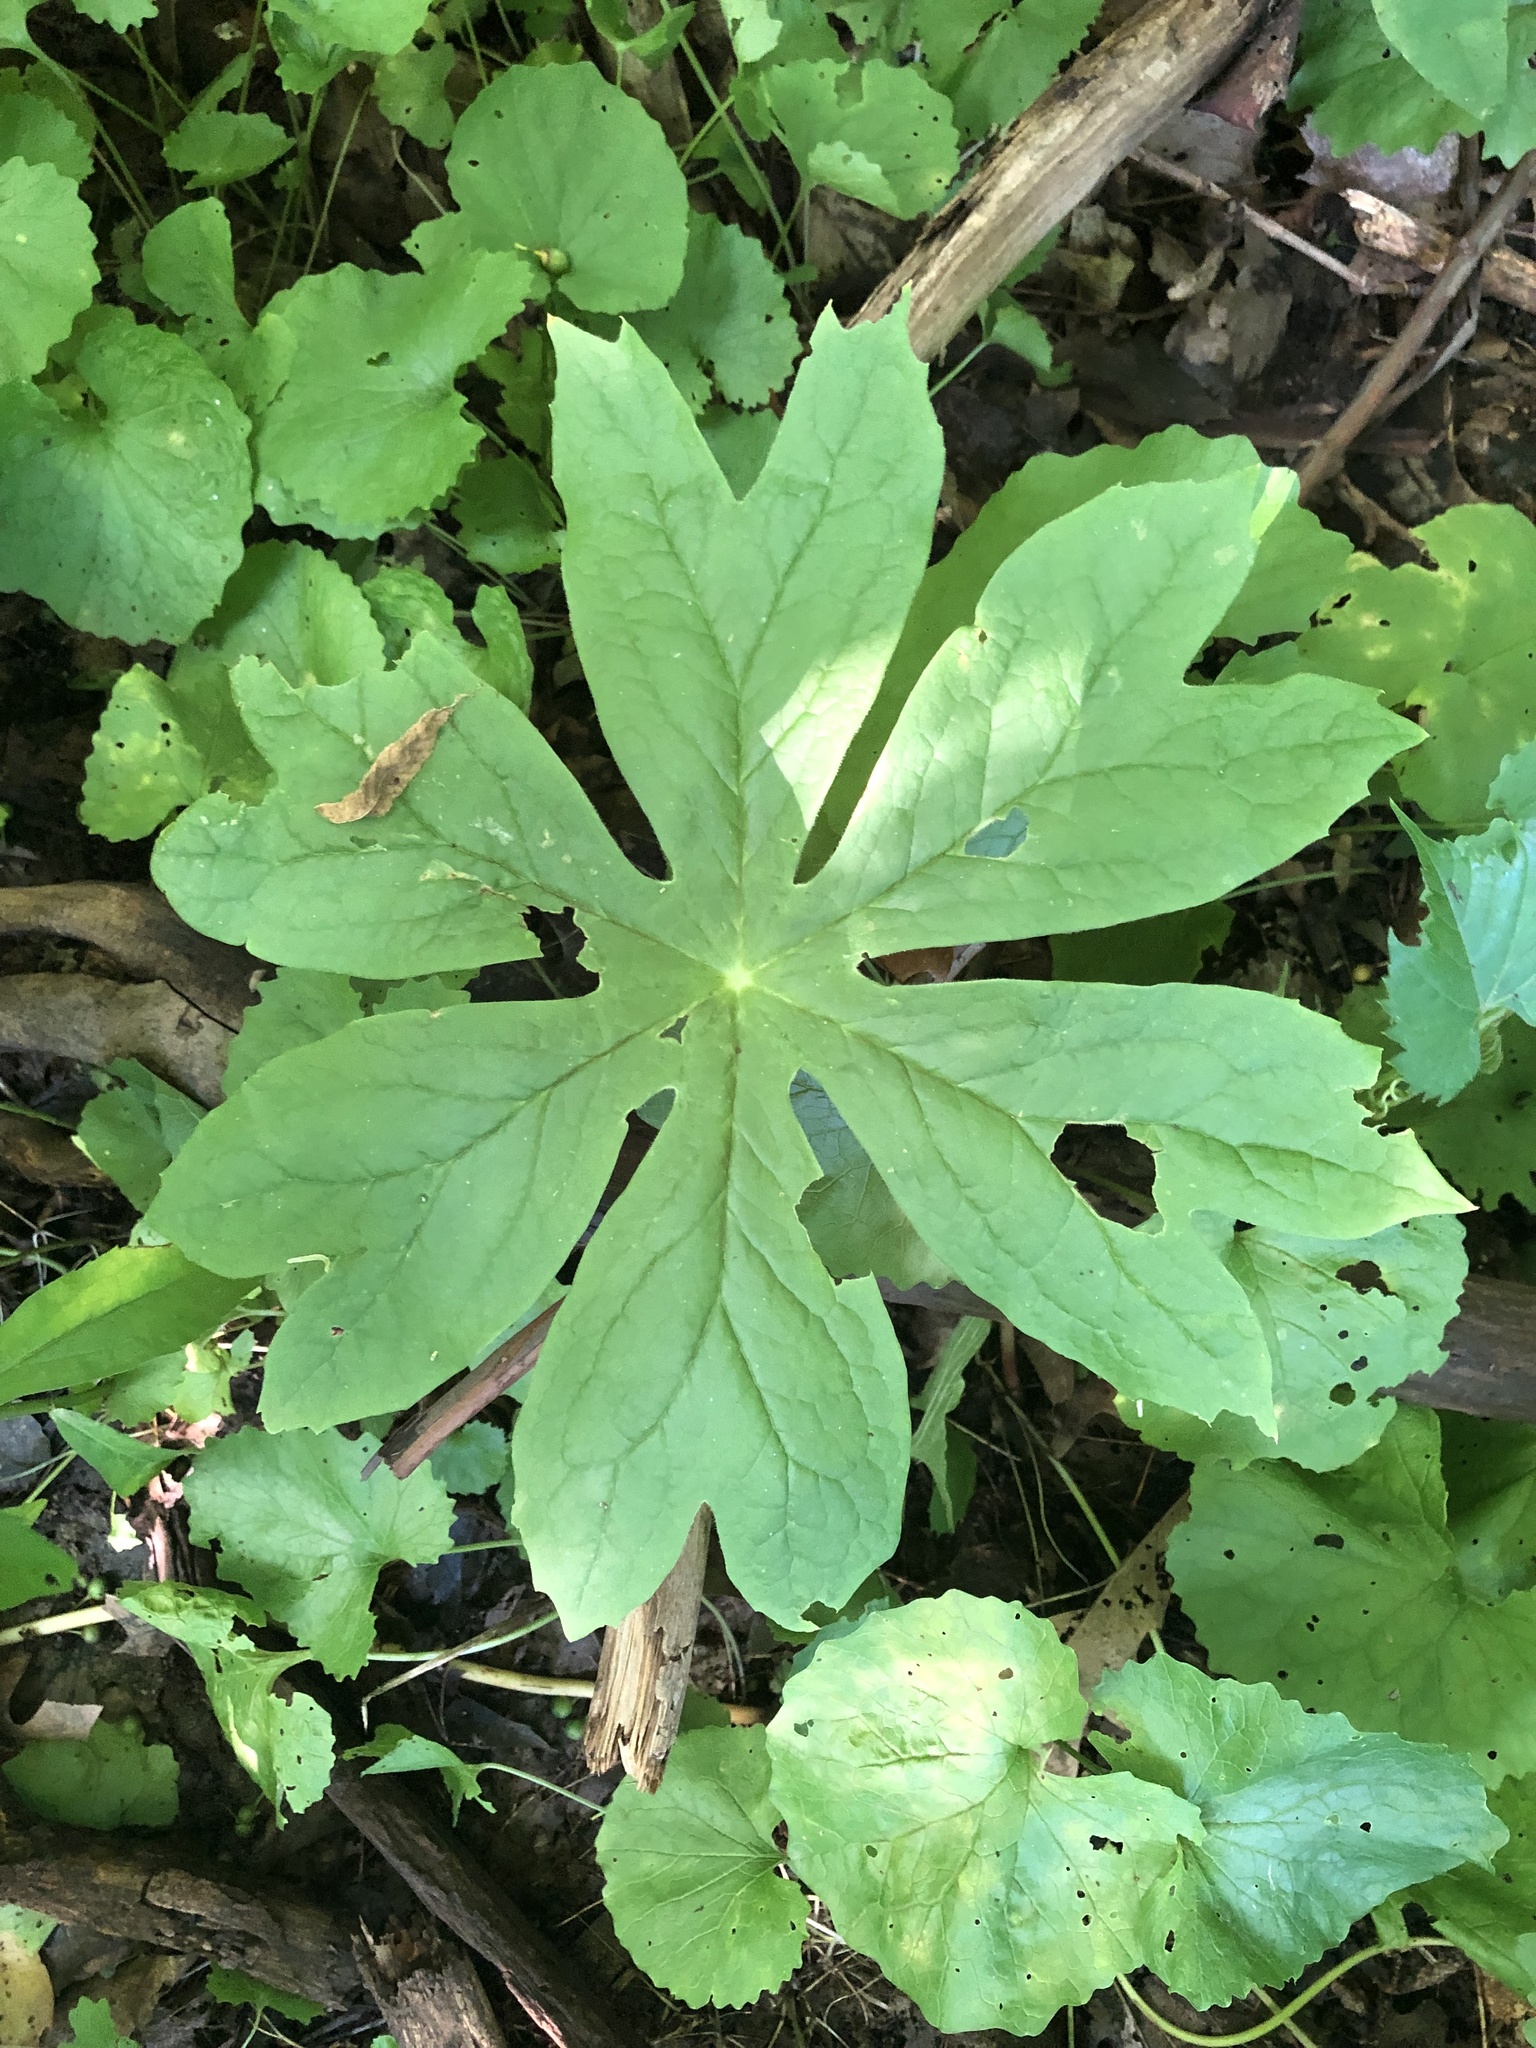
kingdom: Plantae
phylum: Tracheophyta
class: Magnoliopsida
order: Ranunculales
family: Berberidaceae
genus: Podophyllum
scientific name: Podophyllum peltatum
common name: Wild mandrake
